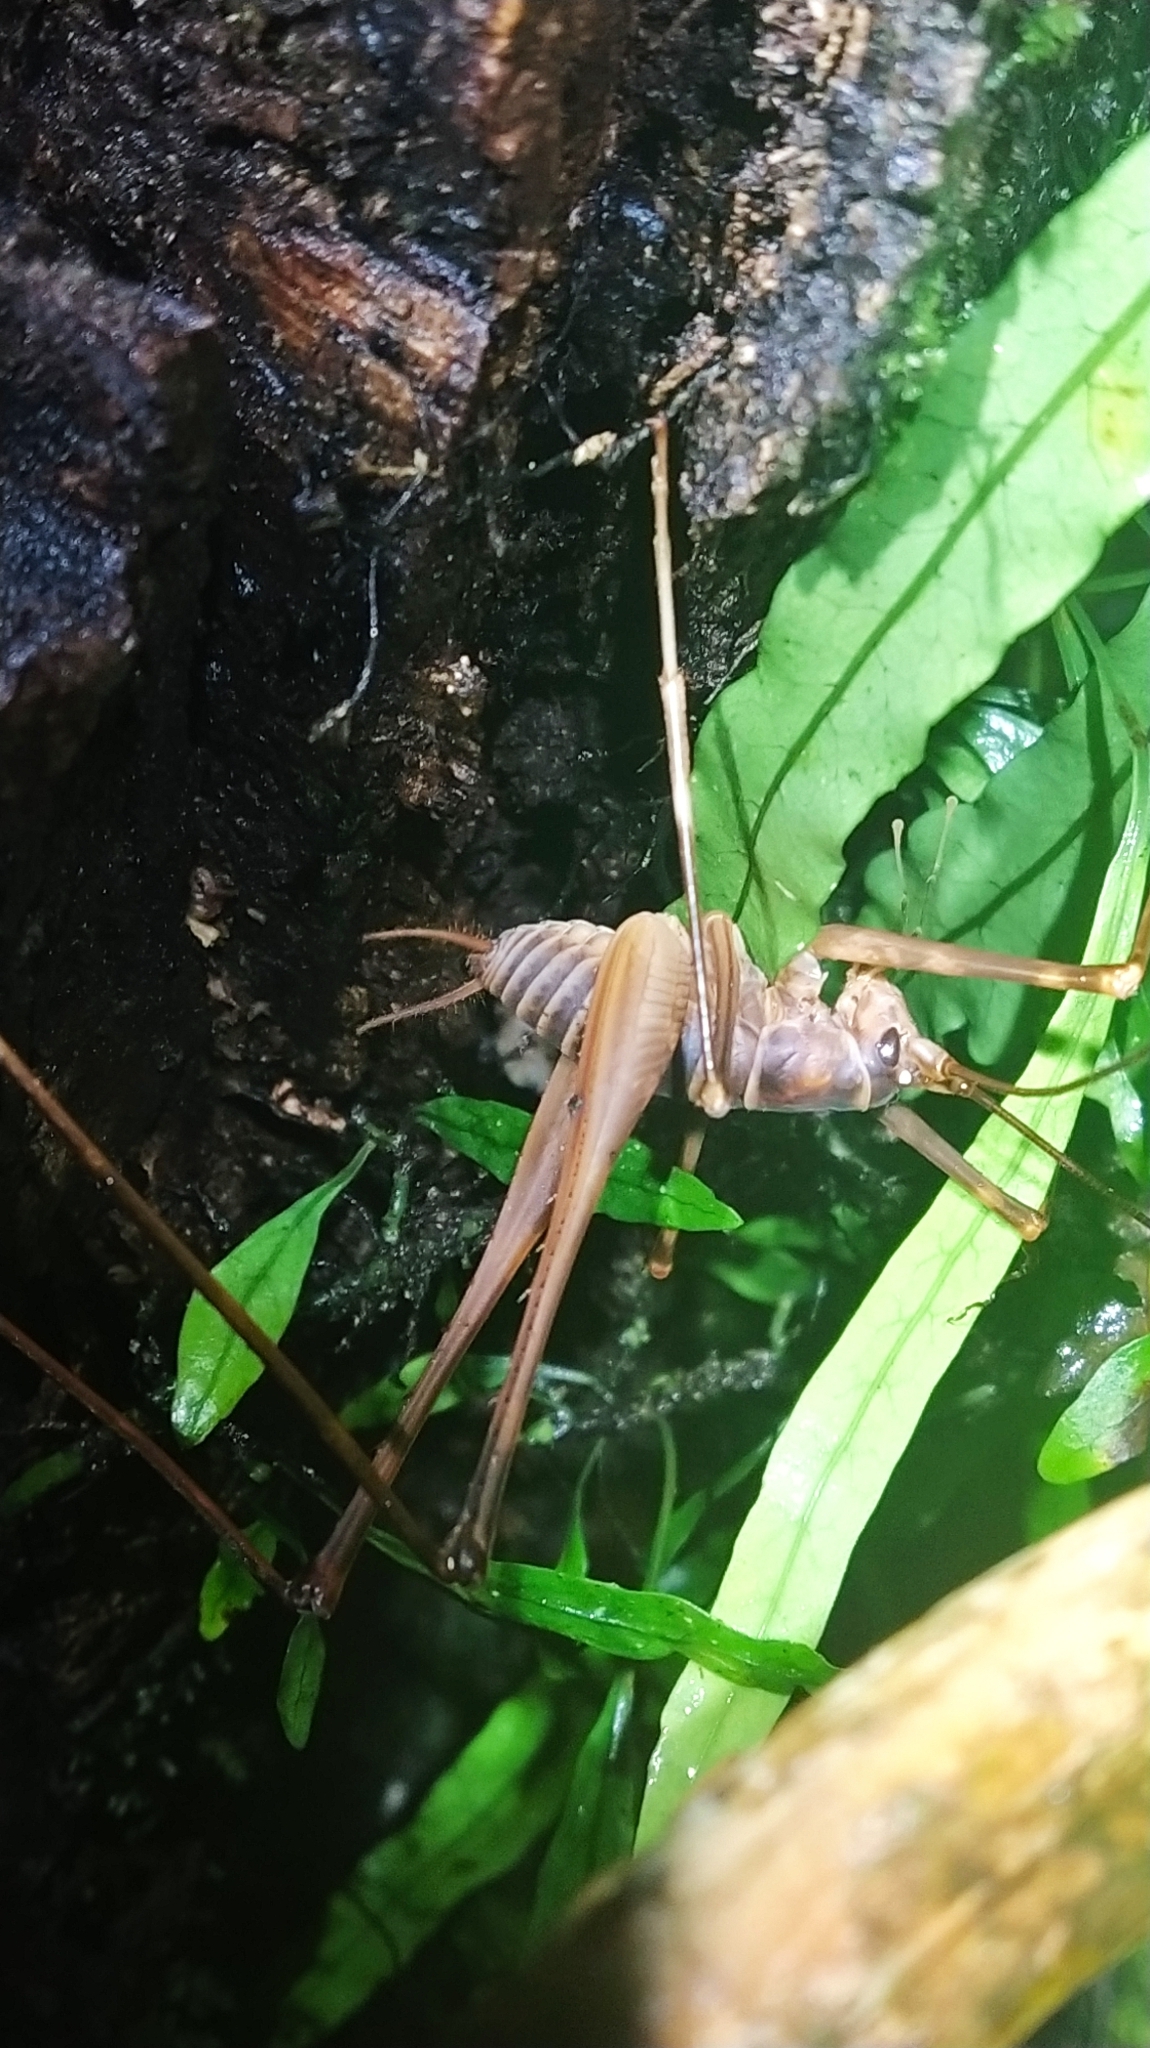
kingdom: Animalia
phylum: Arthropoda
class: Insecta
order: Orthoptera
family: Rhaphidophoridae
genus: Pachyrhamma
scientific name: Pachyrhamma acanthocera
